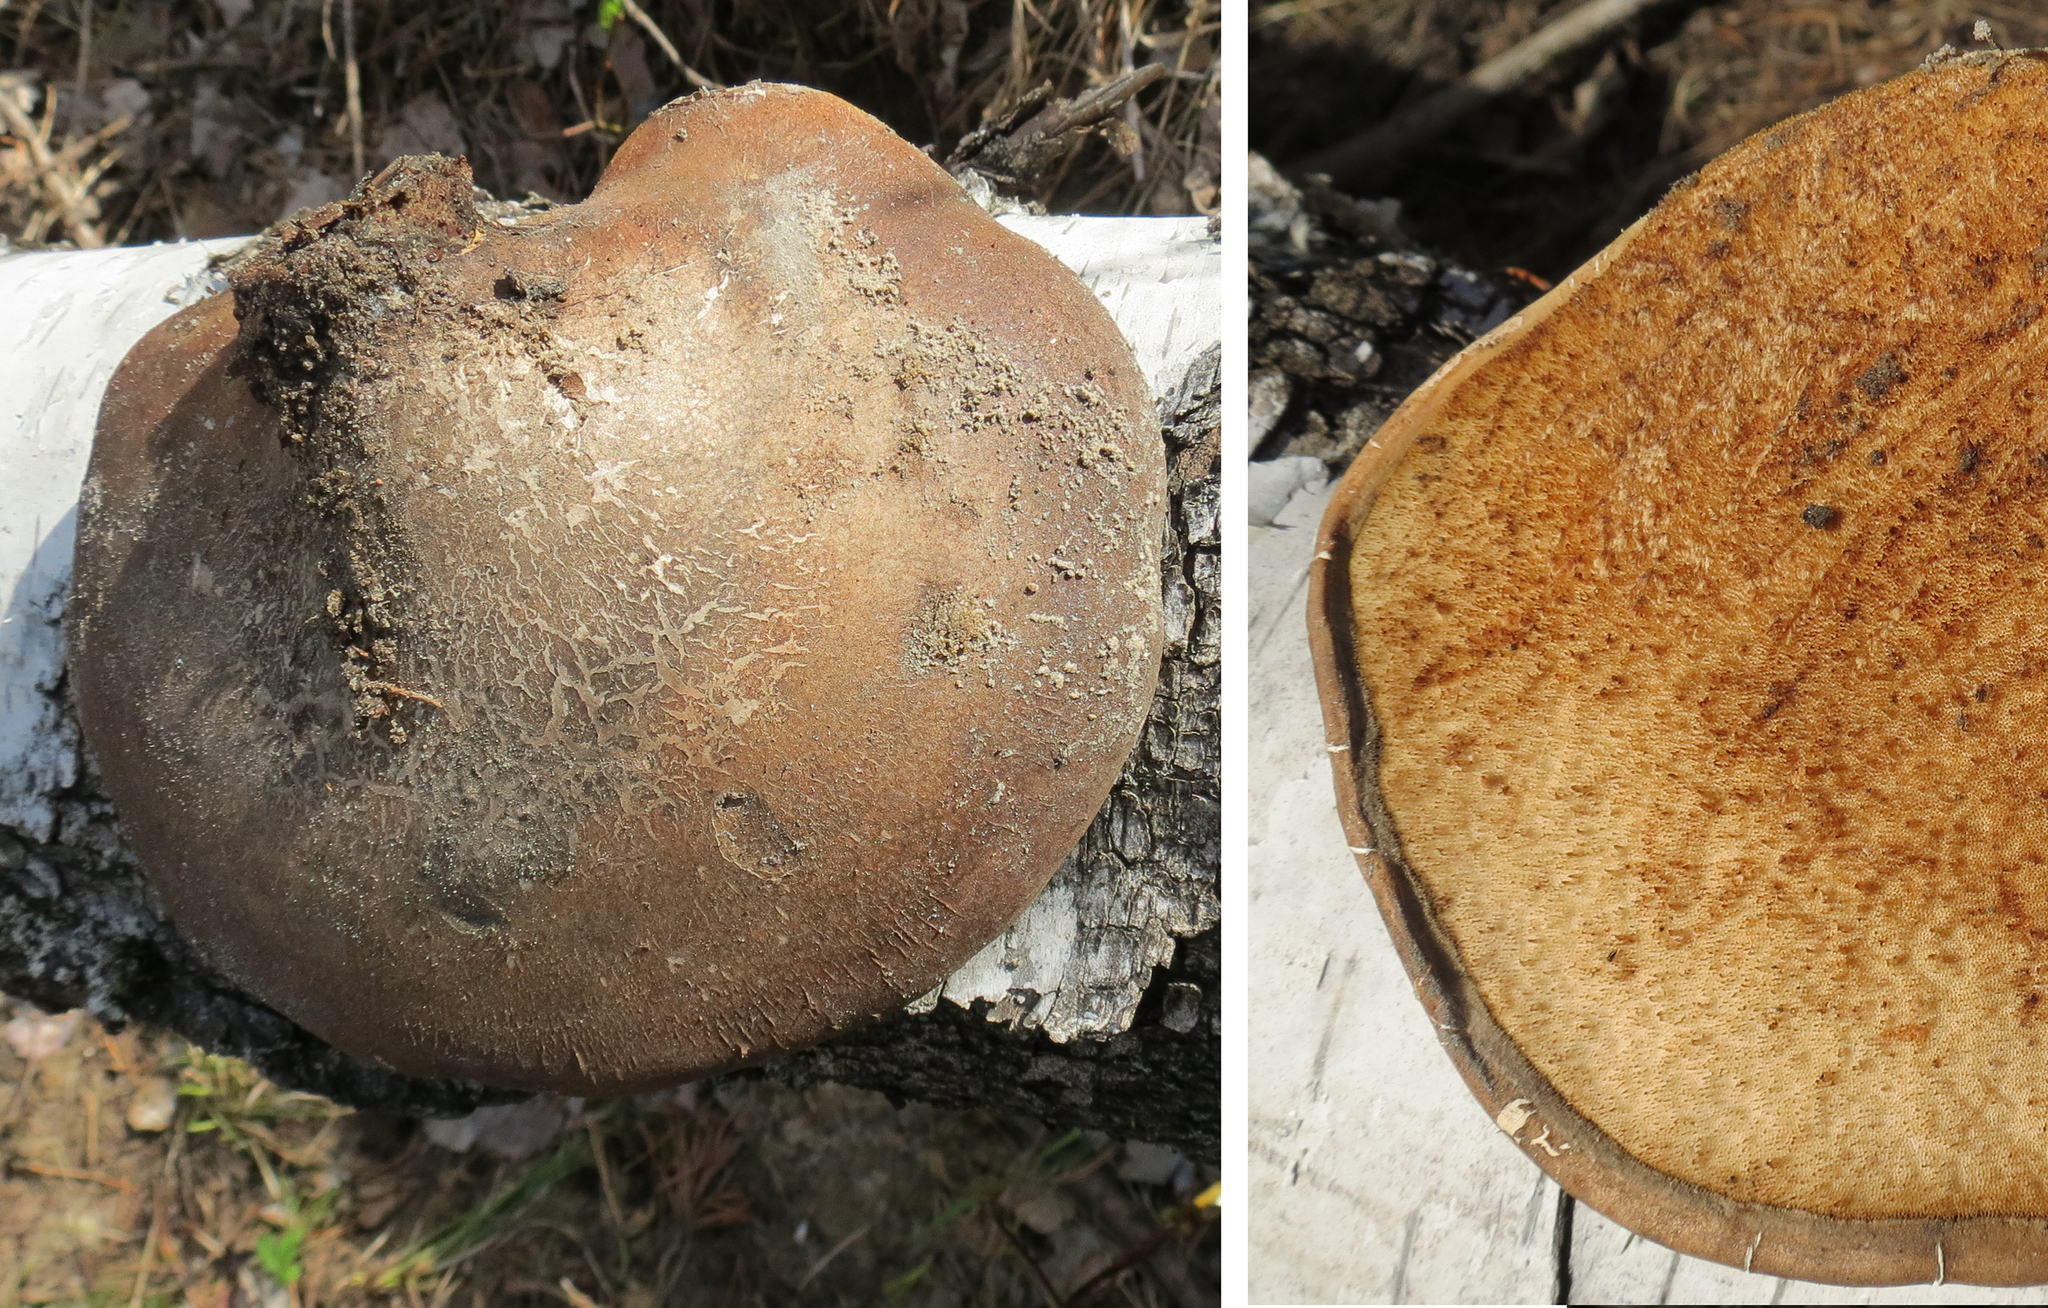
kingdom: Fungi
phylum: Basidiomycota
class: Agaricomycetes
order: Polyporales
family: Fomitopsidaceae
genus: Fomitopsis
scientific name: Fomitopsis betulina
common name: Birch polypore
